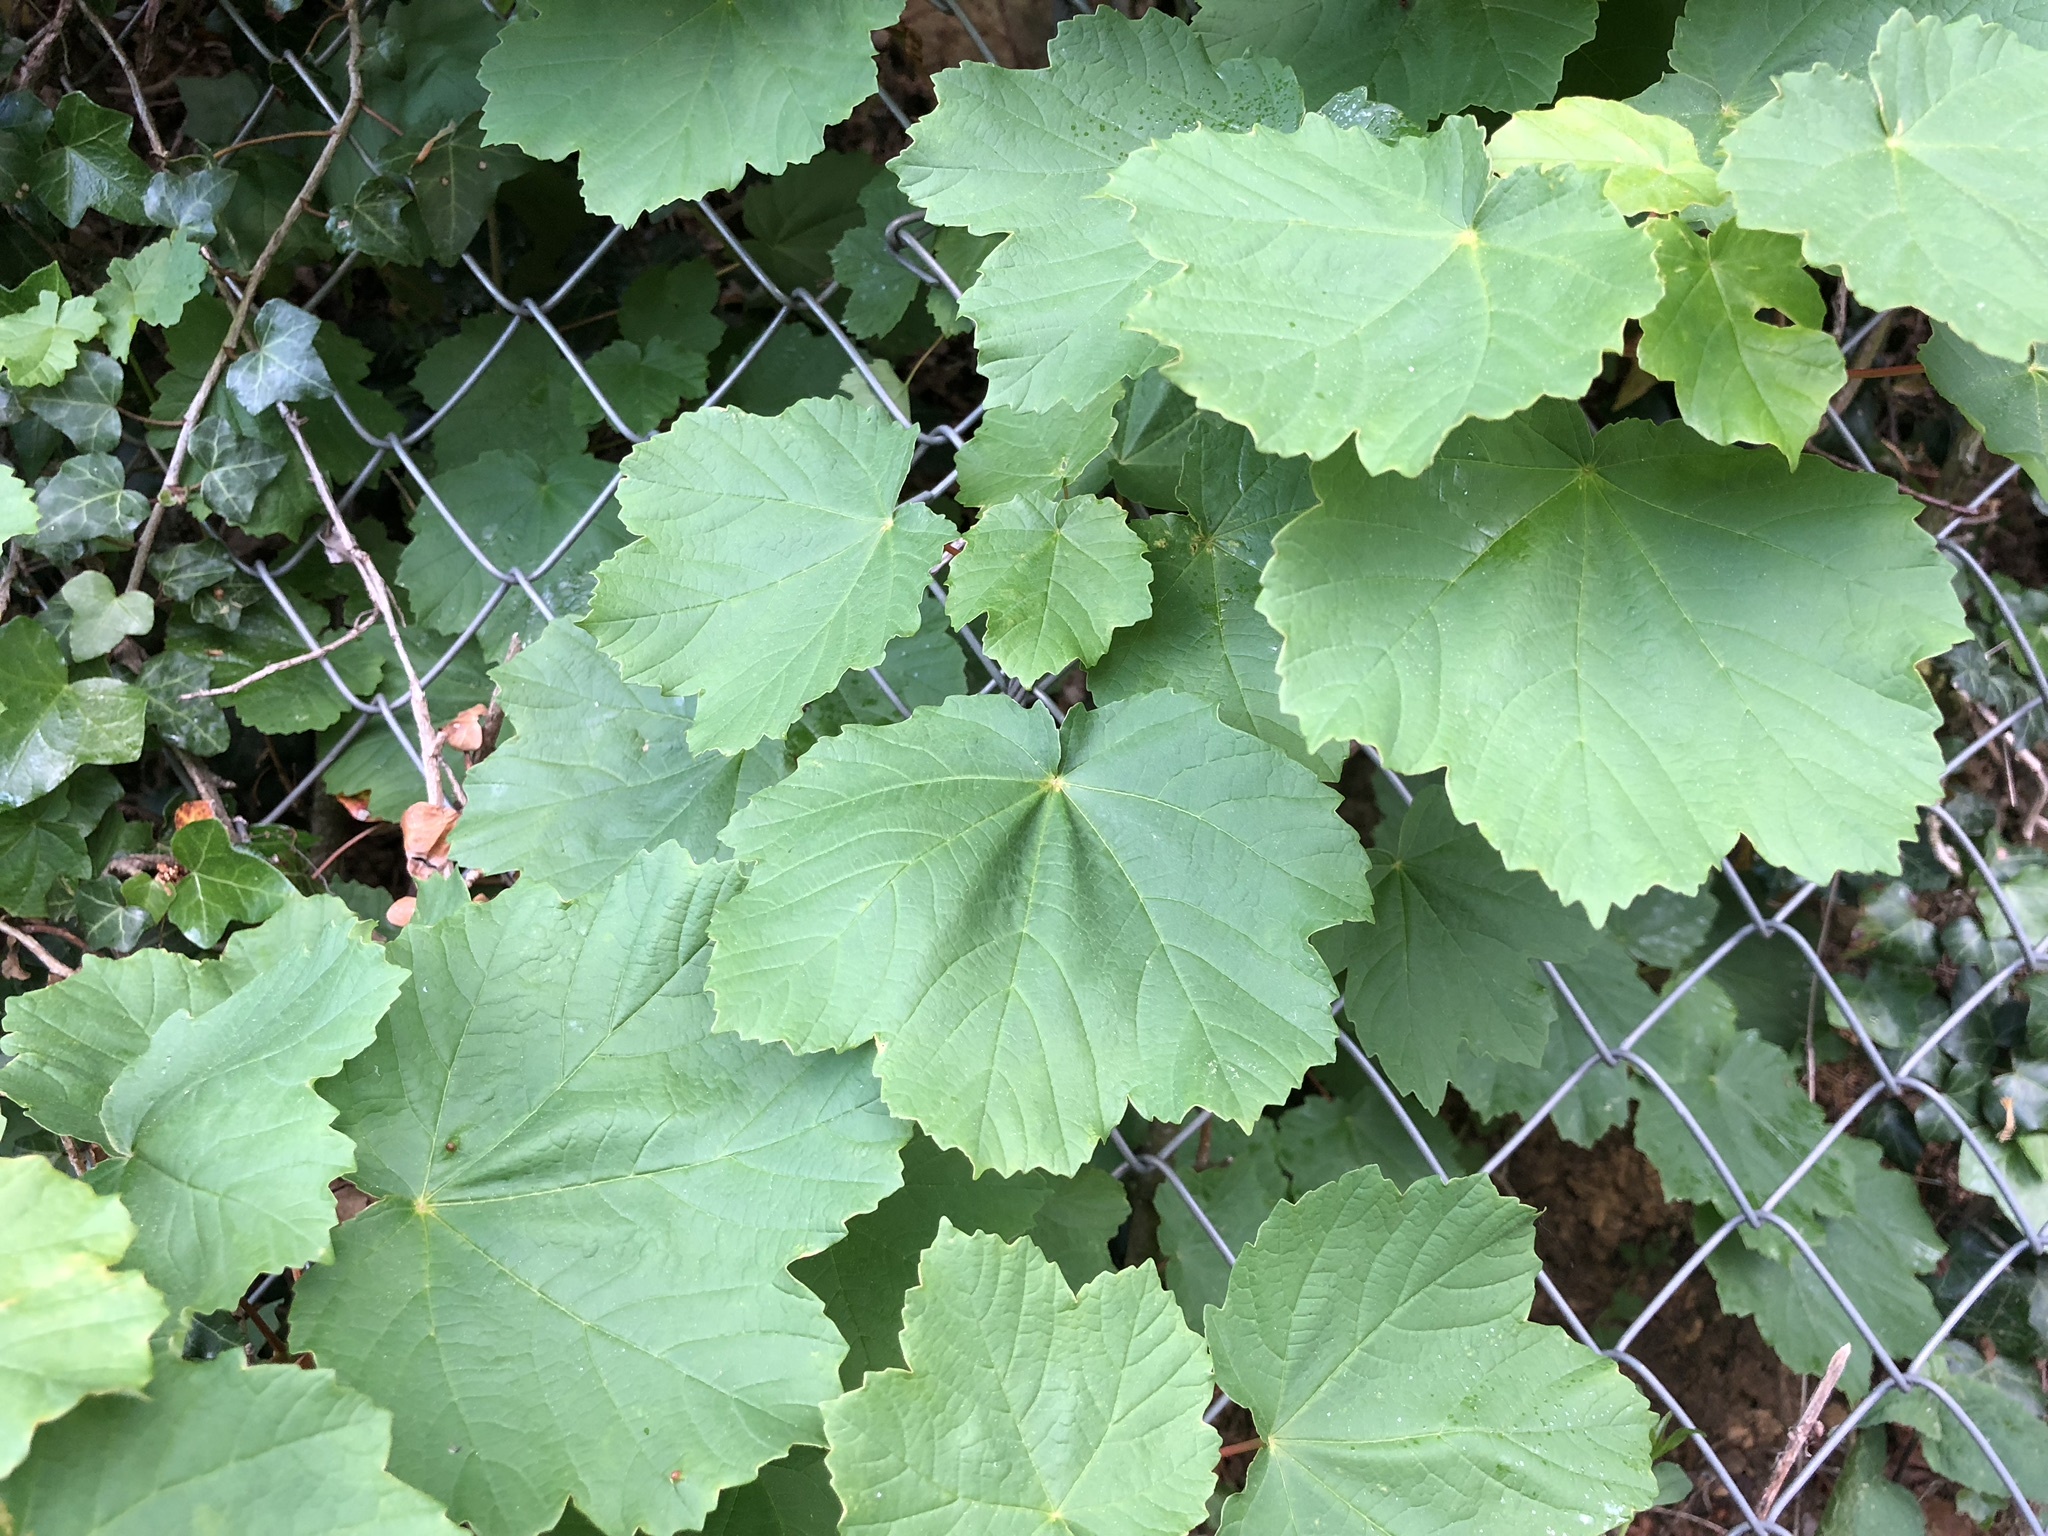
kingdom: Plantae
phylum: Tracheophyta
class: Magnoliopsida
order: Sapindales
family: Sapindaceae
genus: Acer
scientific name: Acer opalus
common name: Italian maple
